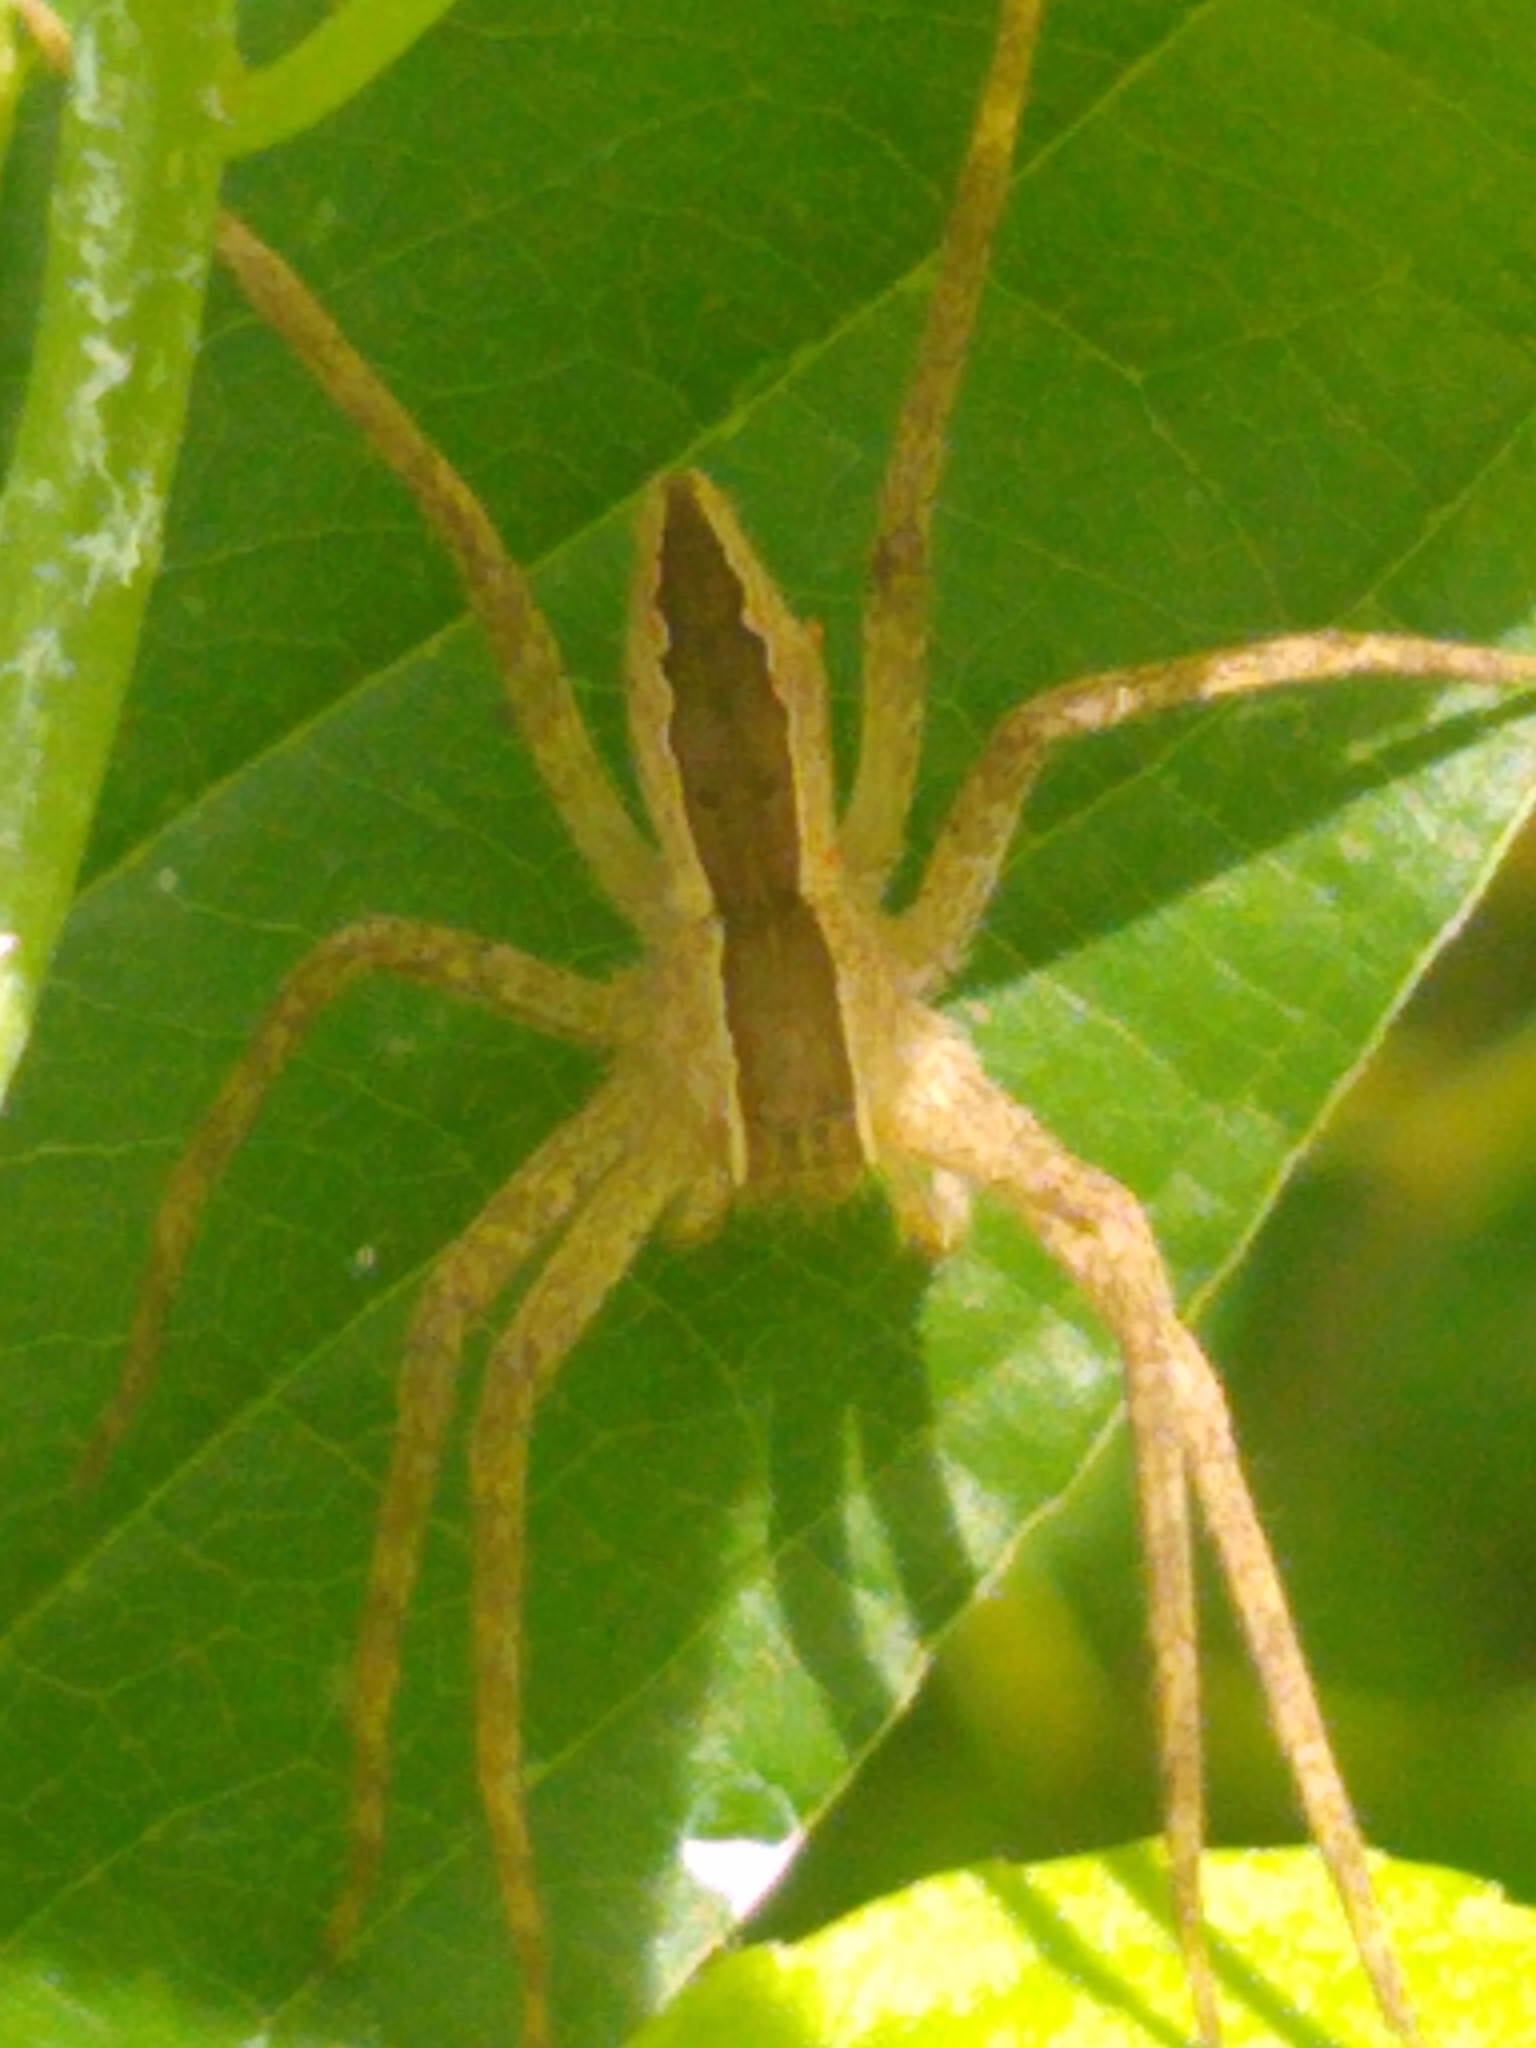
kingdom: Animalia
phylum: Arthropoda
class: Arachnida
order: Araneae
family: Pisauridae
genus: Pisaurina
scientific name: Pisaurina mira
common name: American nursery web spider
